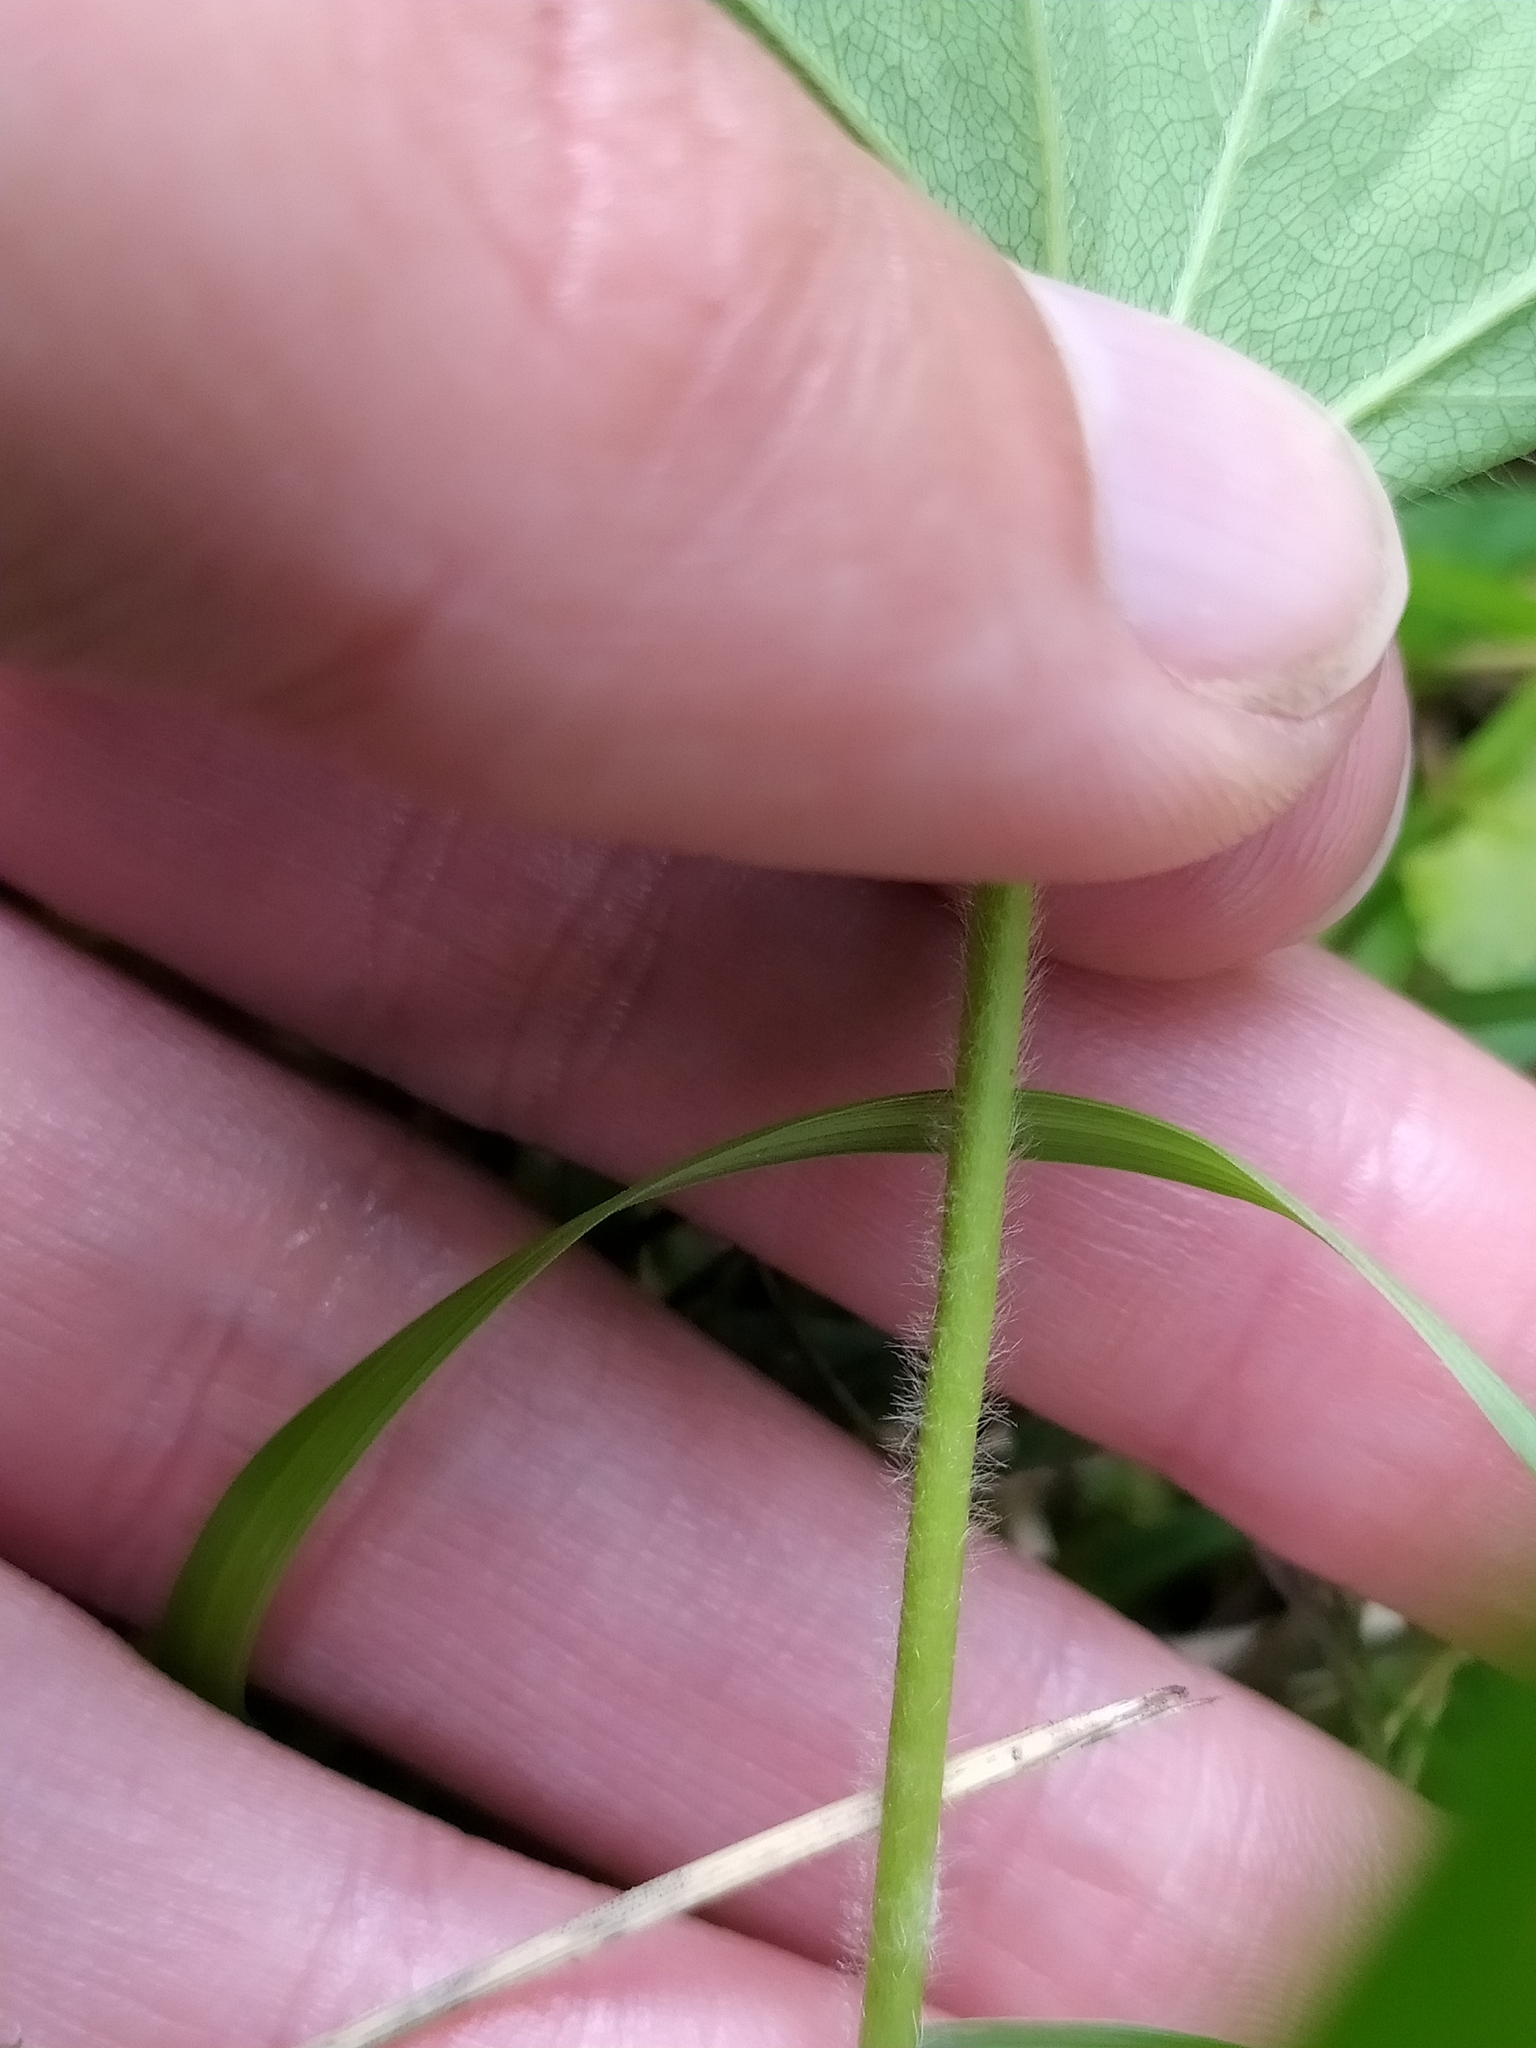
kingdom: Plantae
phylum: Tracheophyta
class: Magnoliopsida
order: Rosales
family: Rosaceae
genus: Alchemilla
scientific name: Alchemilla micans
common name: Gleaming lady's mantle
